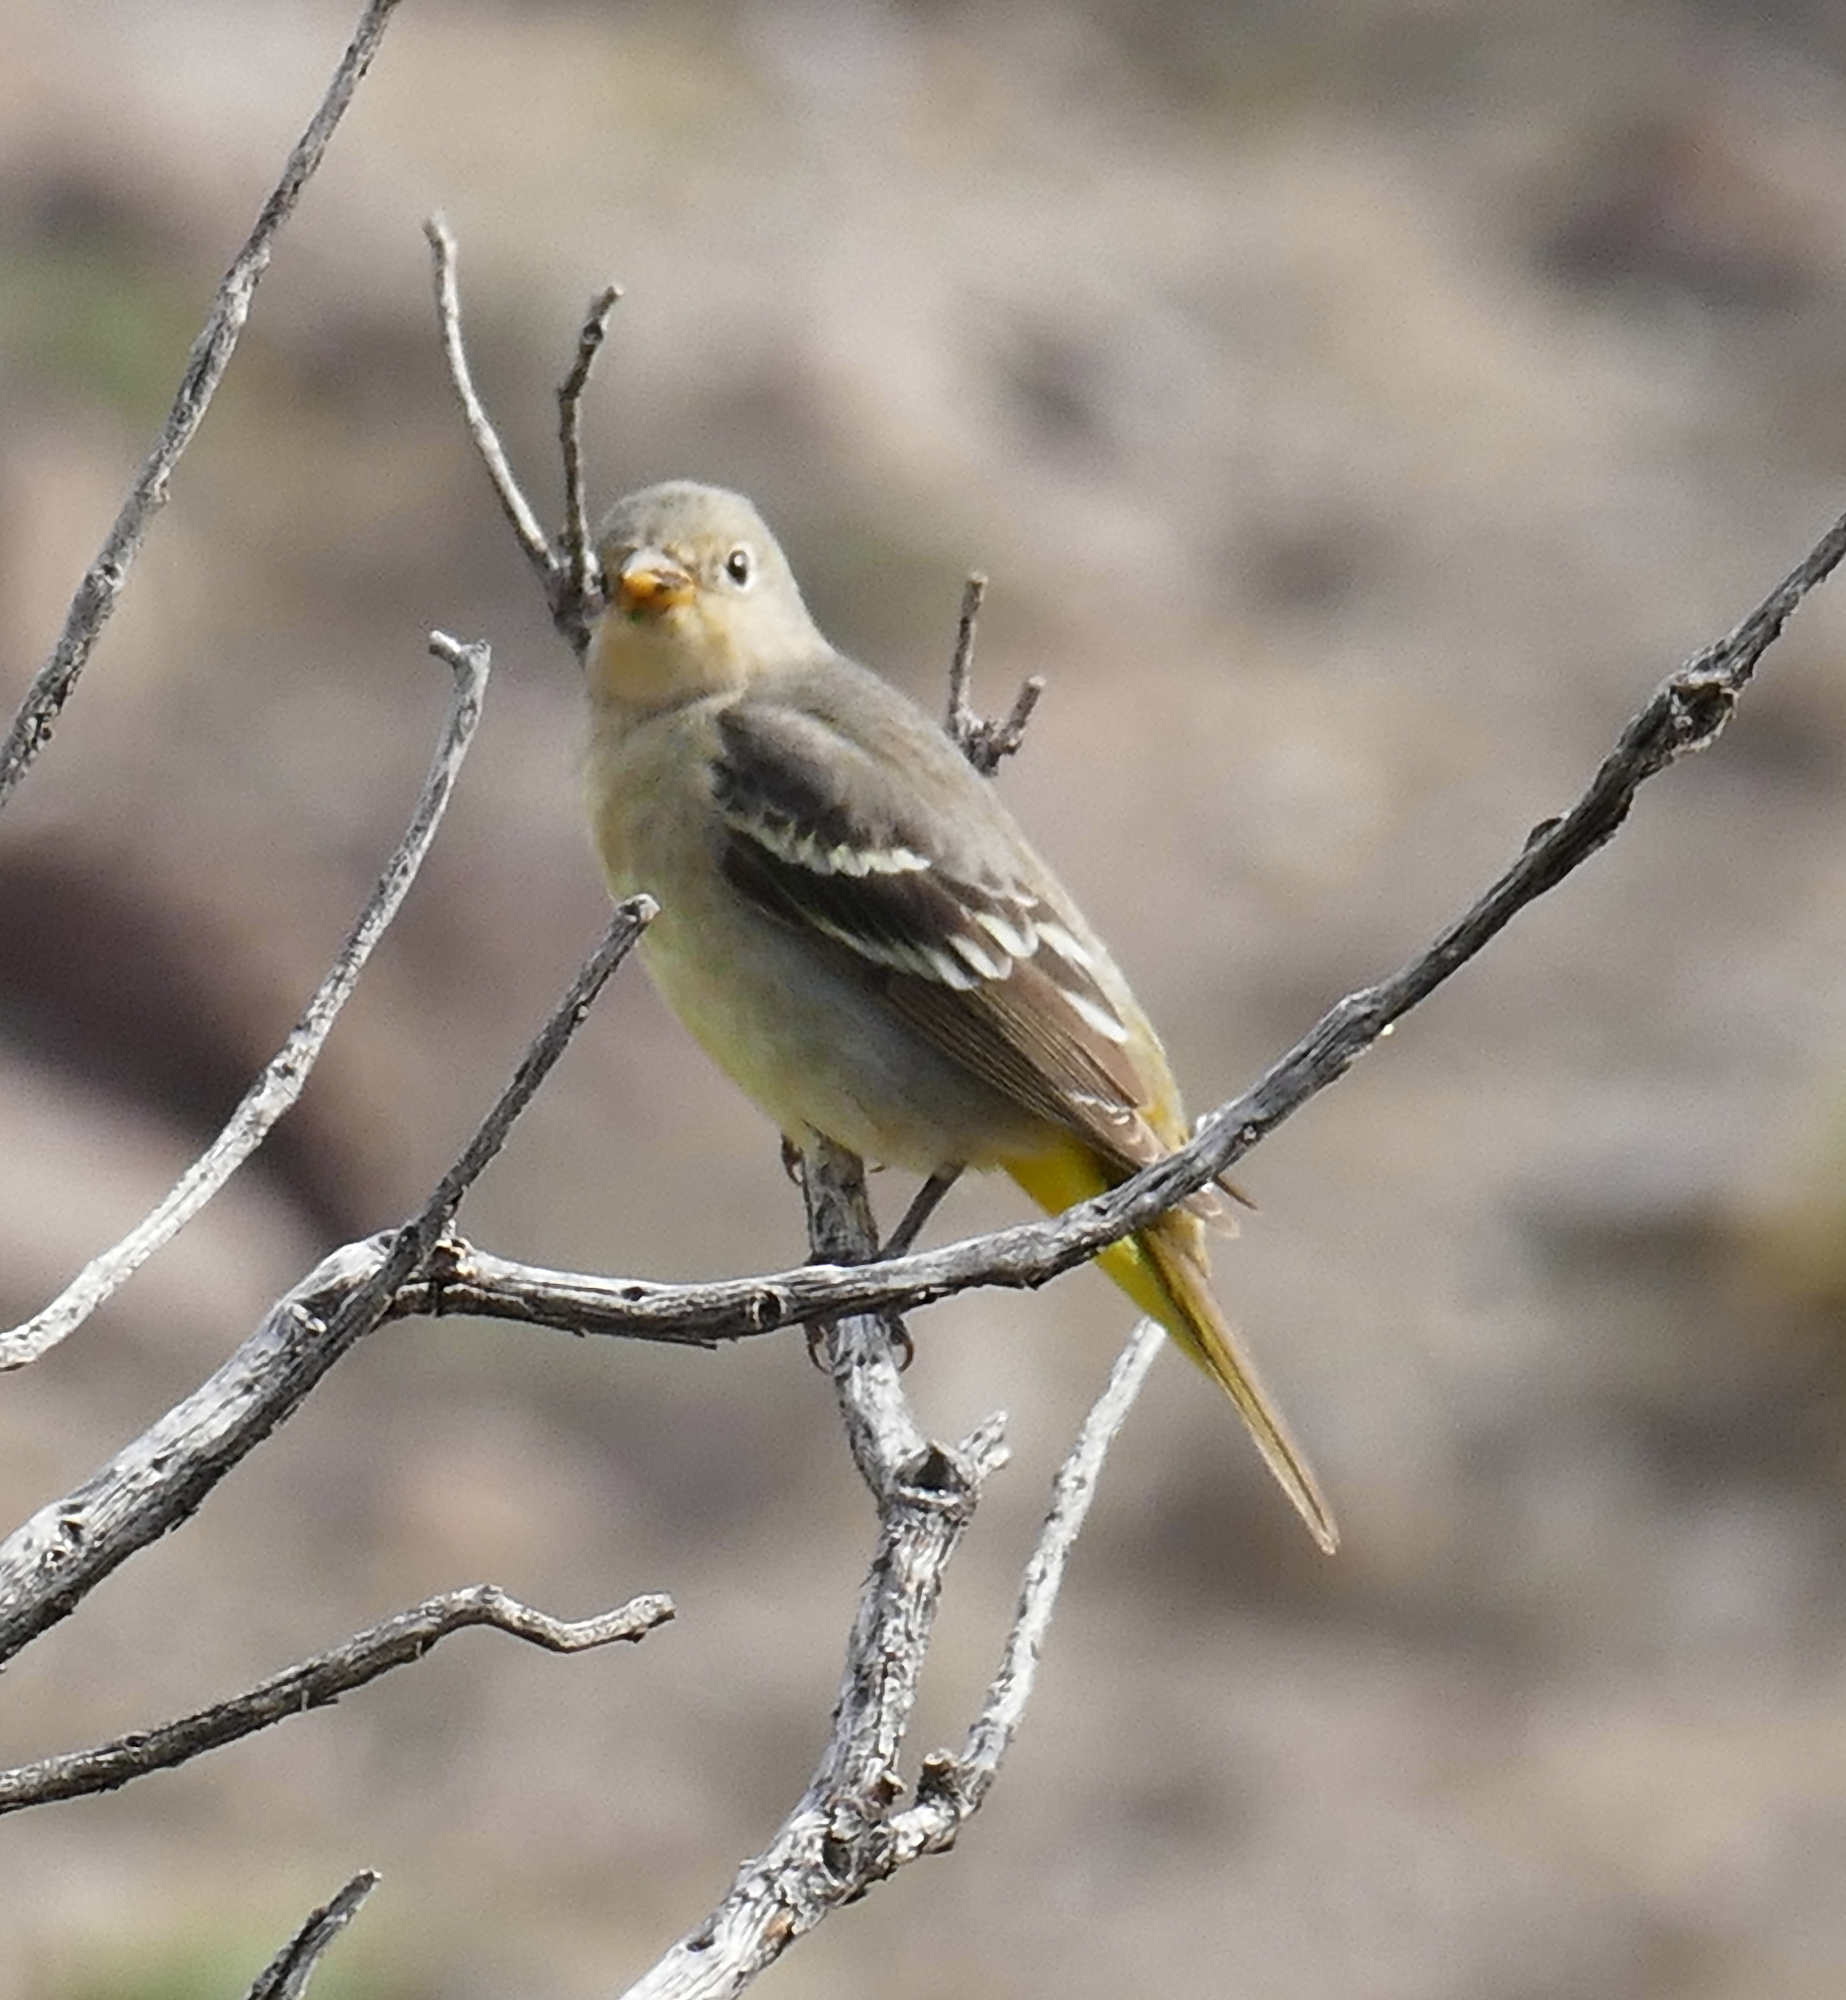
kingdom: Animalia
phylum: Chordata
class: Aves
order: Passeriformes
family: Cardinalidae
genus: Piranga
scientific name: Piranga ludoviciana
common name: Western tanager
